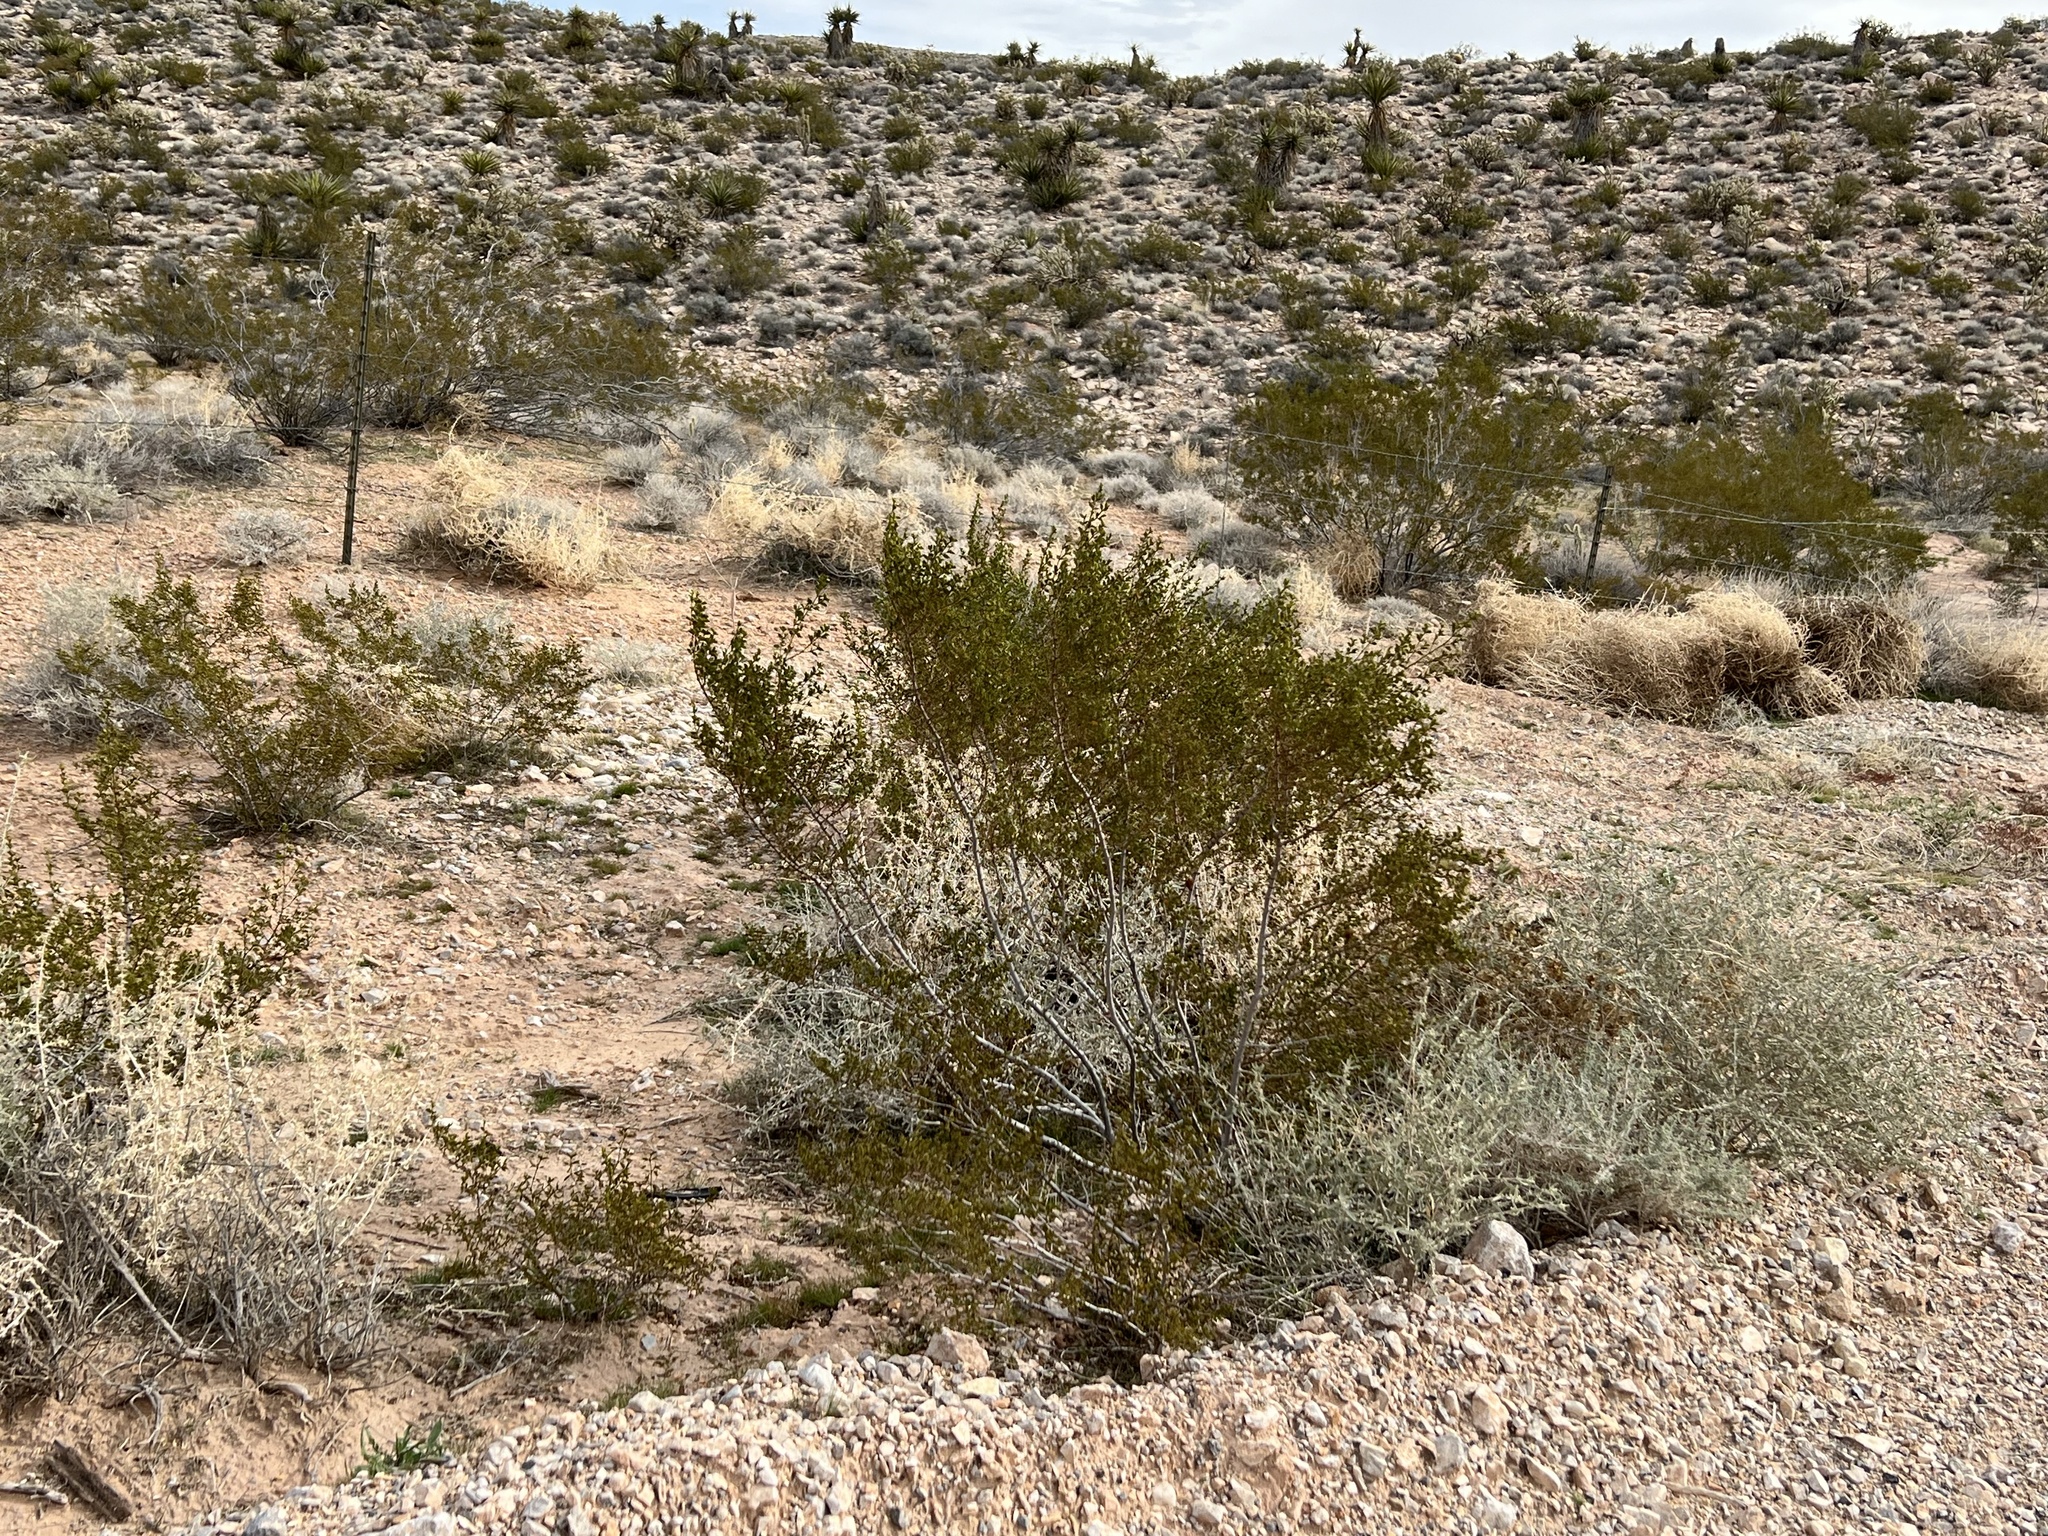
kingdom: Plantae
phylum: Tracheophyta
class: Magnoliopsida
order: Zygophyllales
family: Zygophyllaceae
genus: Larrea
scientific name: Larrea tridentata
